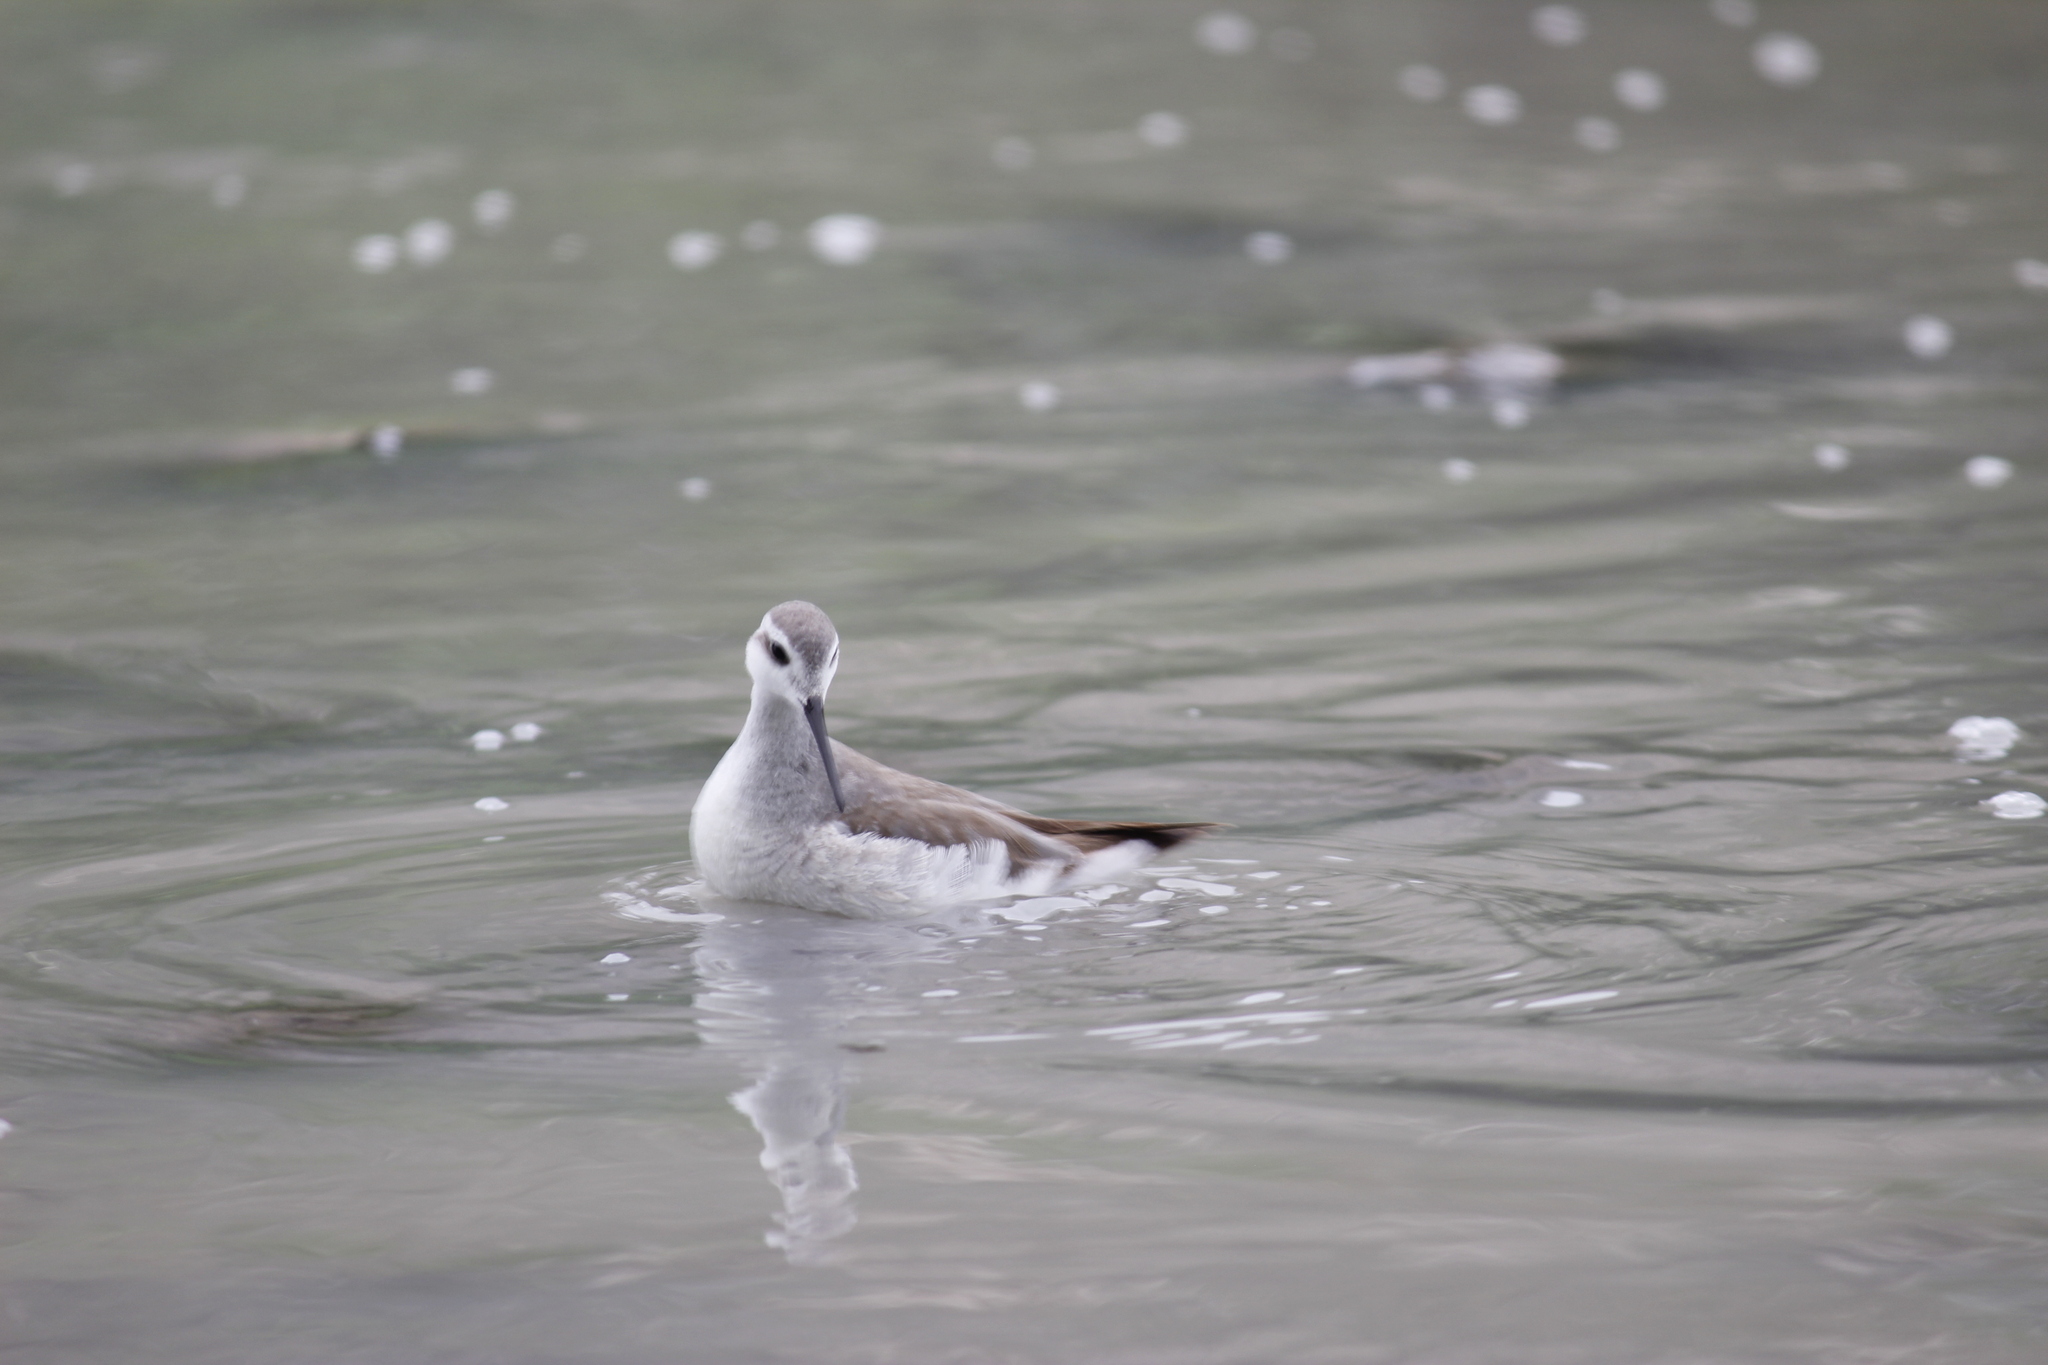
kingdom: Animalia
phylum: Chordata
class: Aves
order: Charadriiformes
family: Scolopacidae
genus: Phalaropus
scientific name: Phalaropus tricolor
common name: Wilson's phalarope
